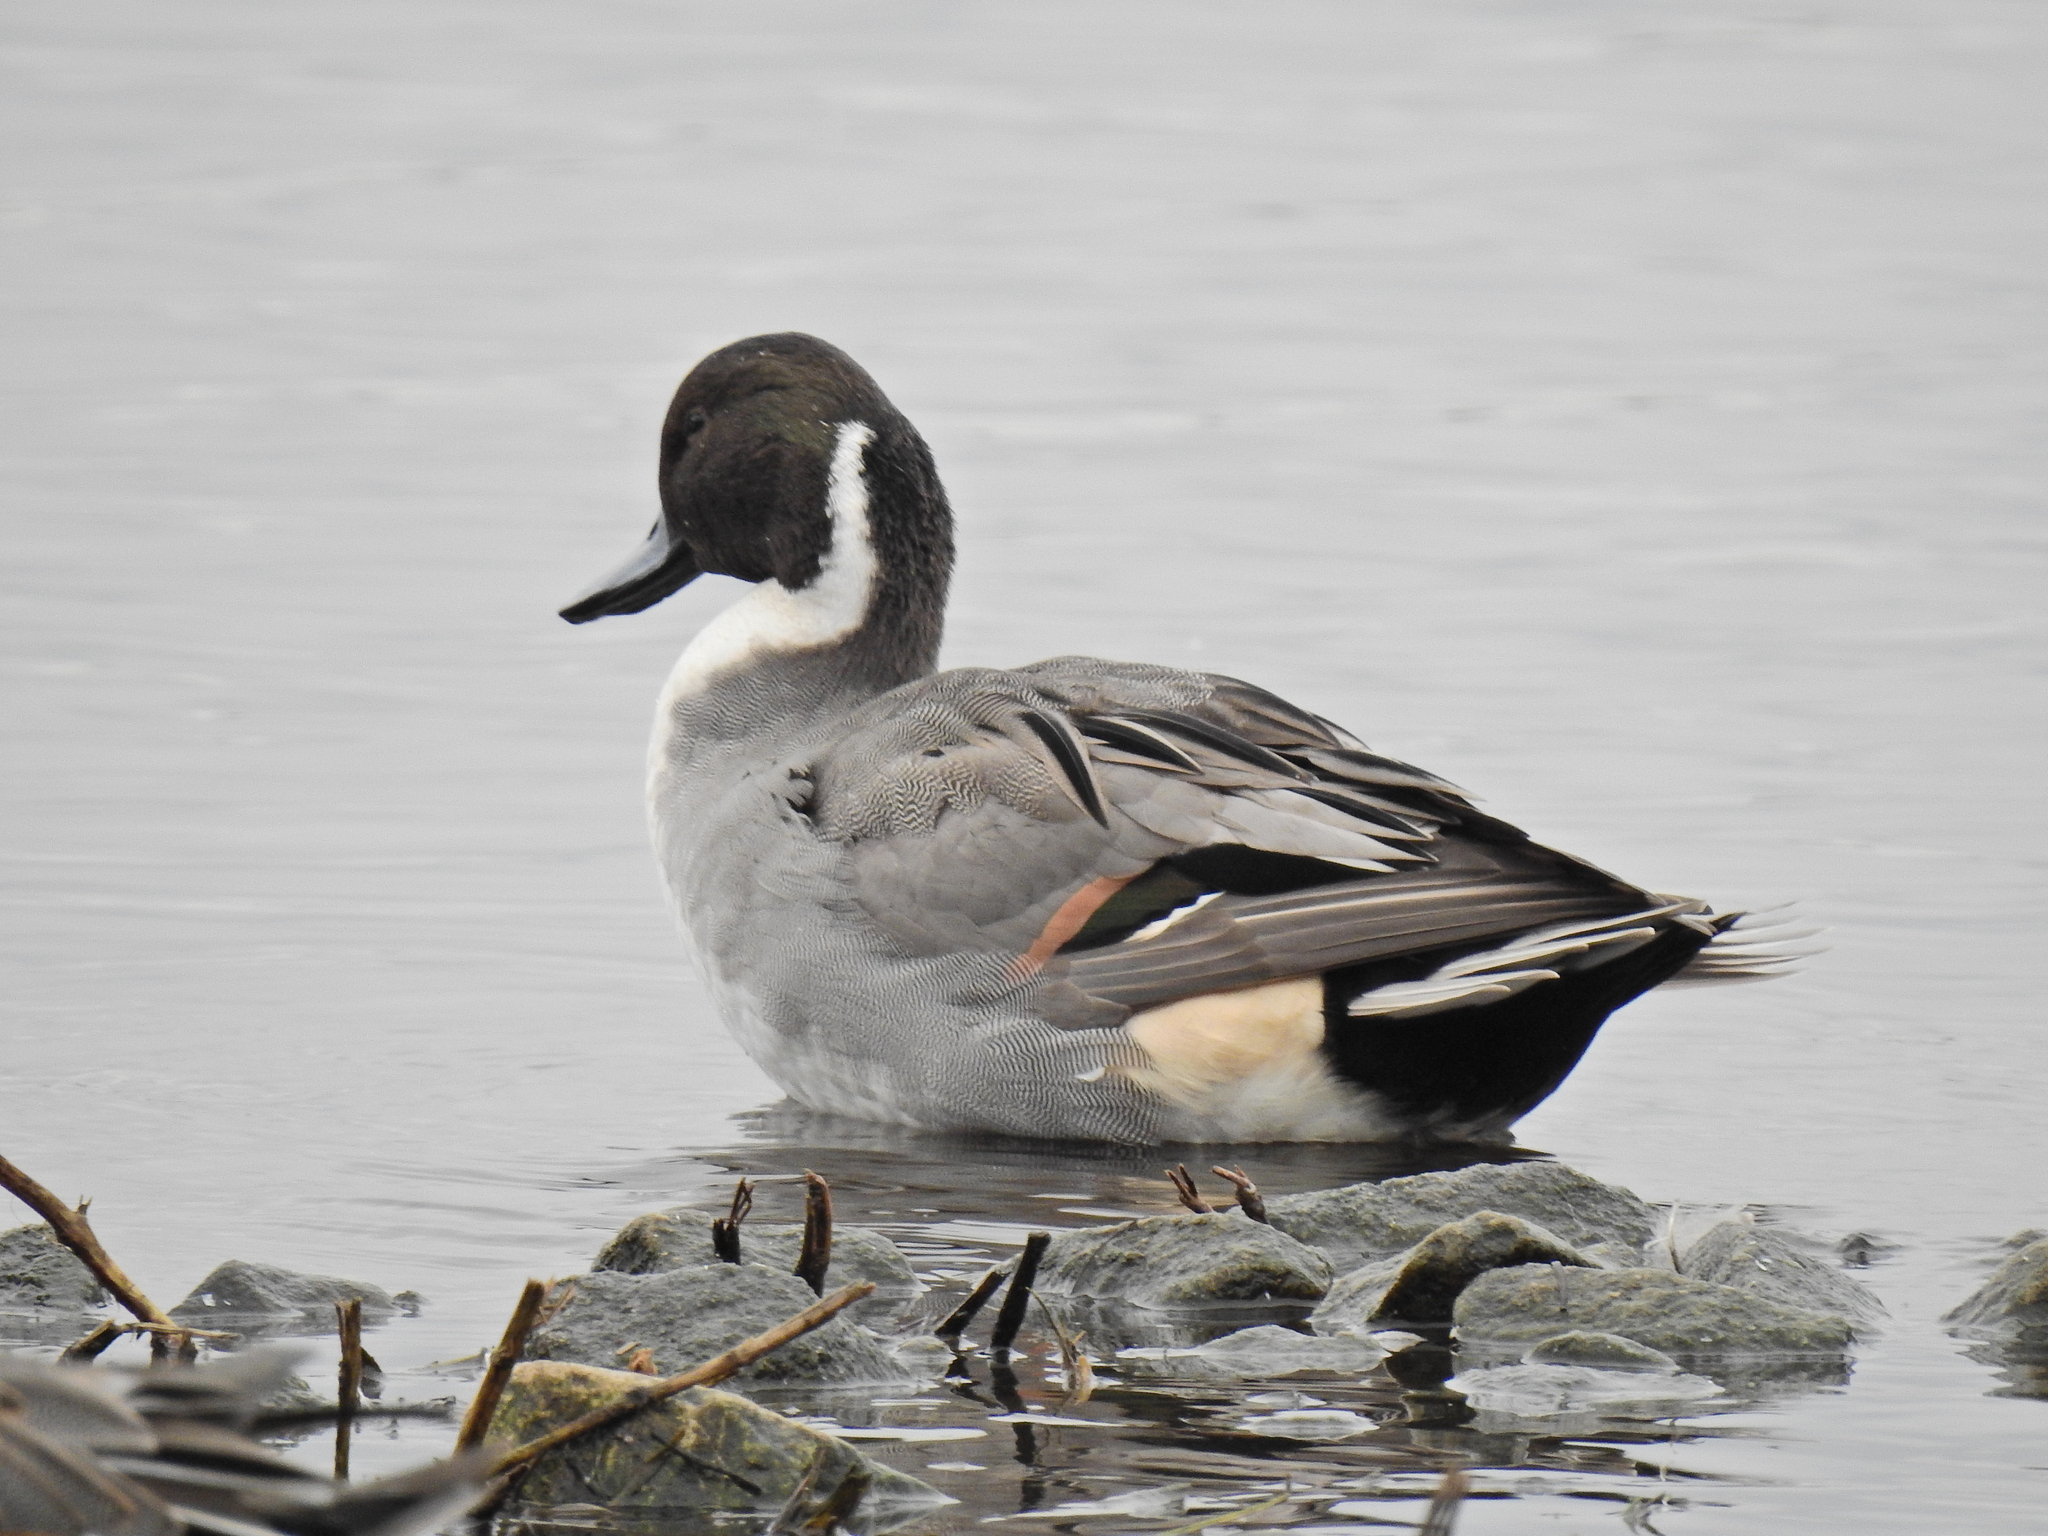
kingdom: Animalia
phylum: Chordata
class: Aves
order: Anseriformes
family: Anatidae
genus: Anas
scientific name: Anas acuta
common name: Northern pintail
